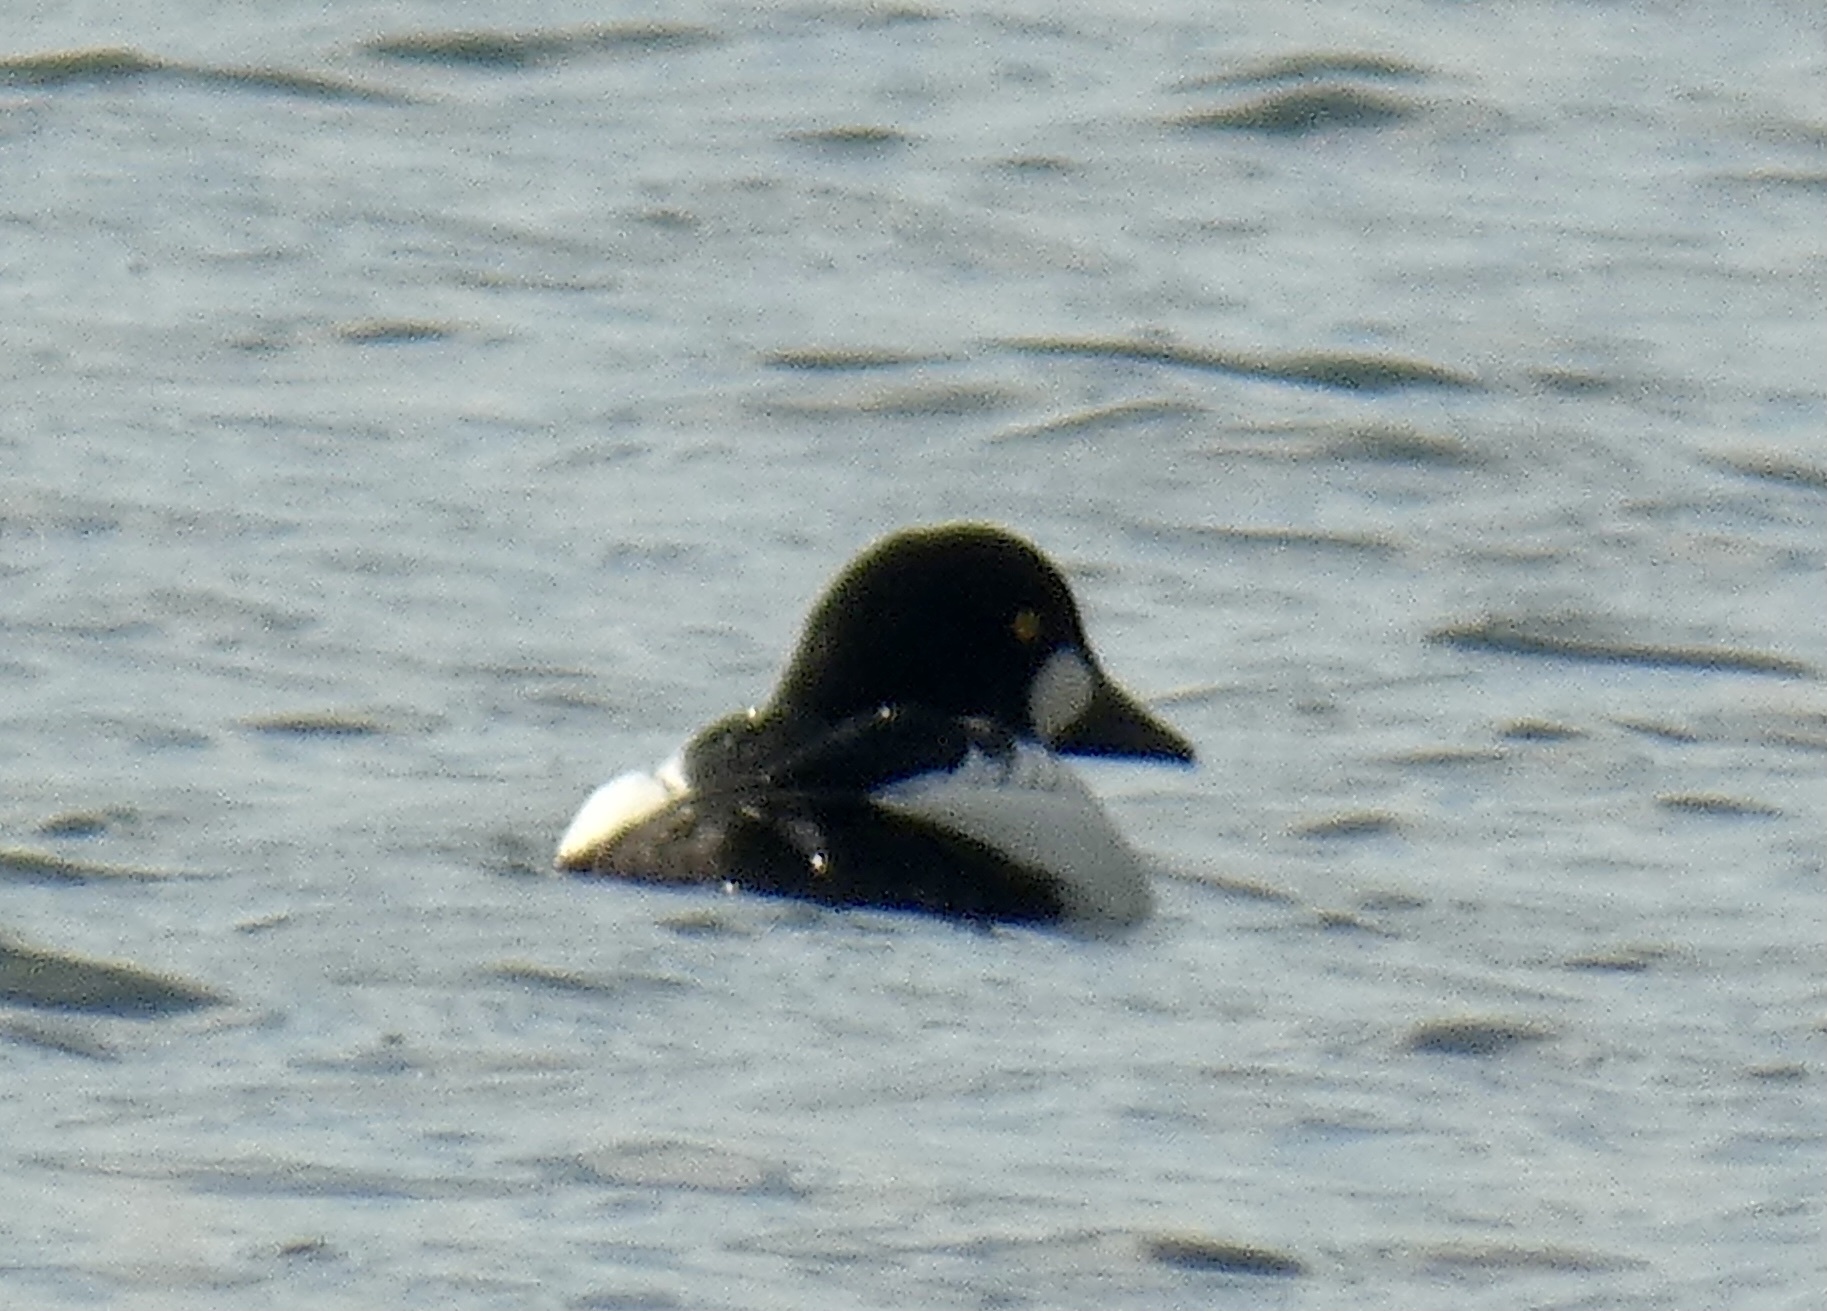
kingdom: Animalia
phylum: Chordata
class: Aves
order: Anseriformes
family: Anatidae
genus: Bucephala
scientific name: Bucephala clangula
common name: Common goldeneye
